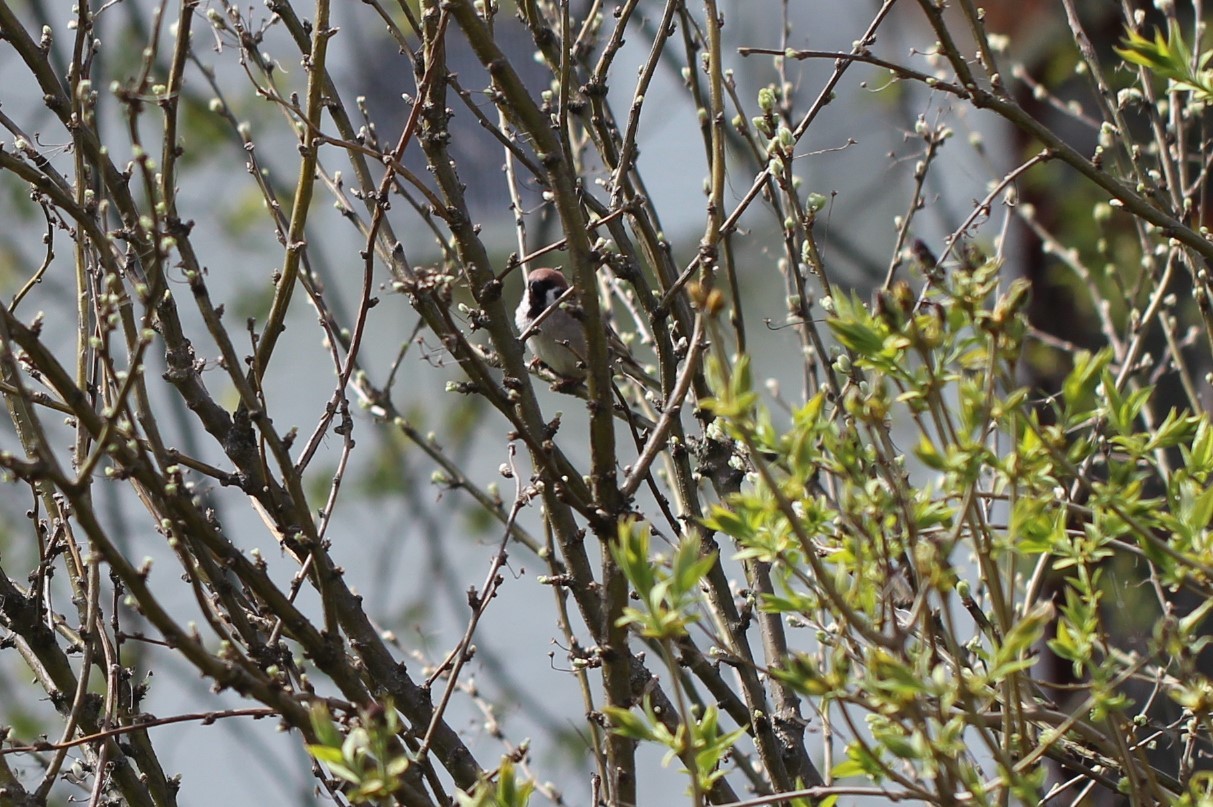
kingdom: Animalia
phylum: Chordata
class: Aves
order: Passeriformes
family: Passeridae
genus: Passer
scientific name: Passer montanus
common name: Eurasian tree sparrow
